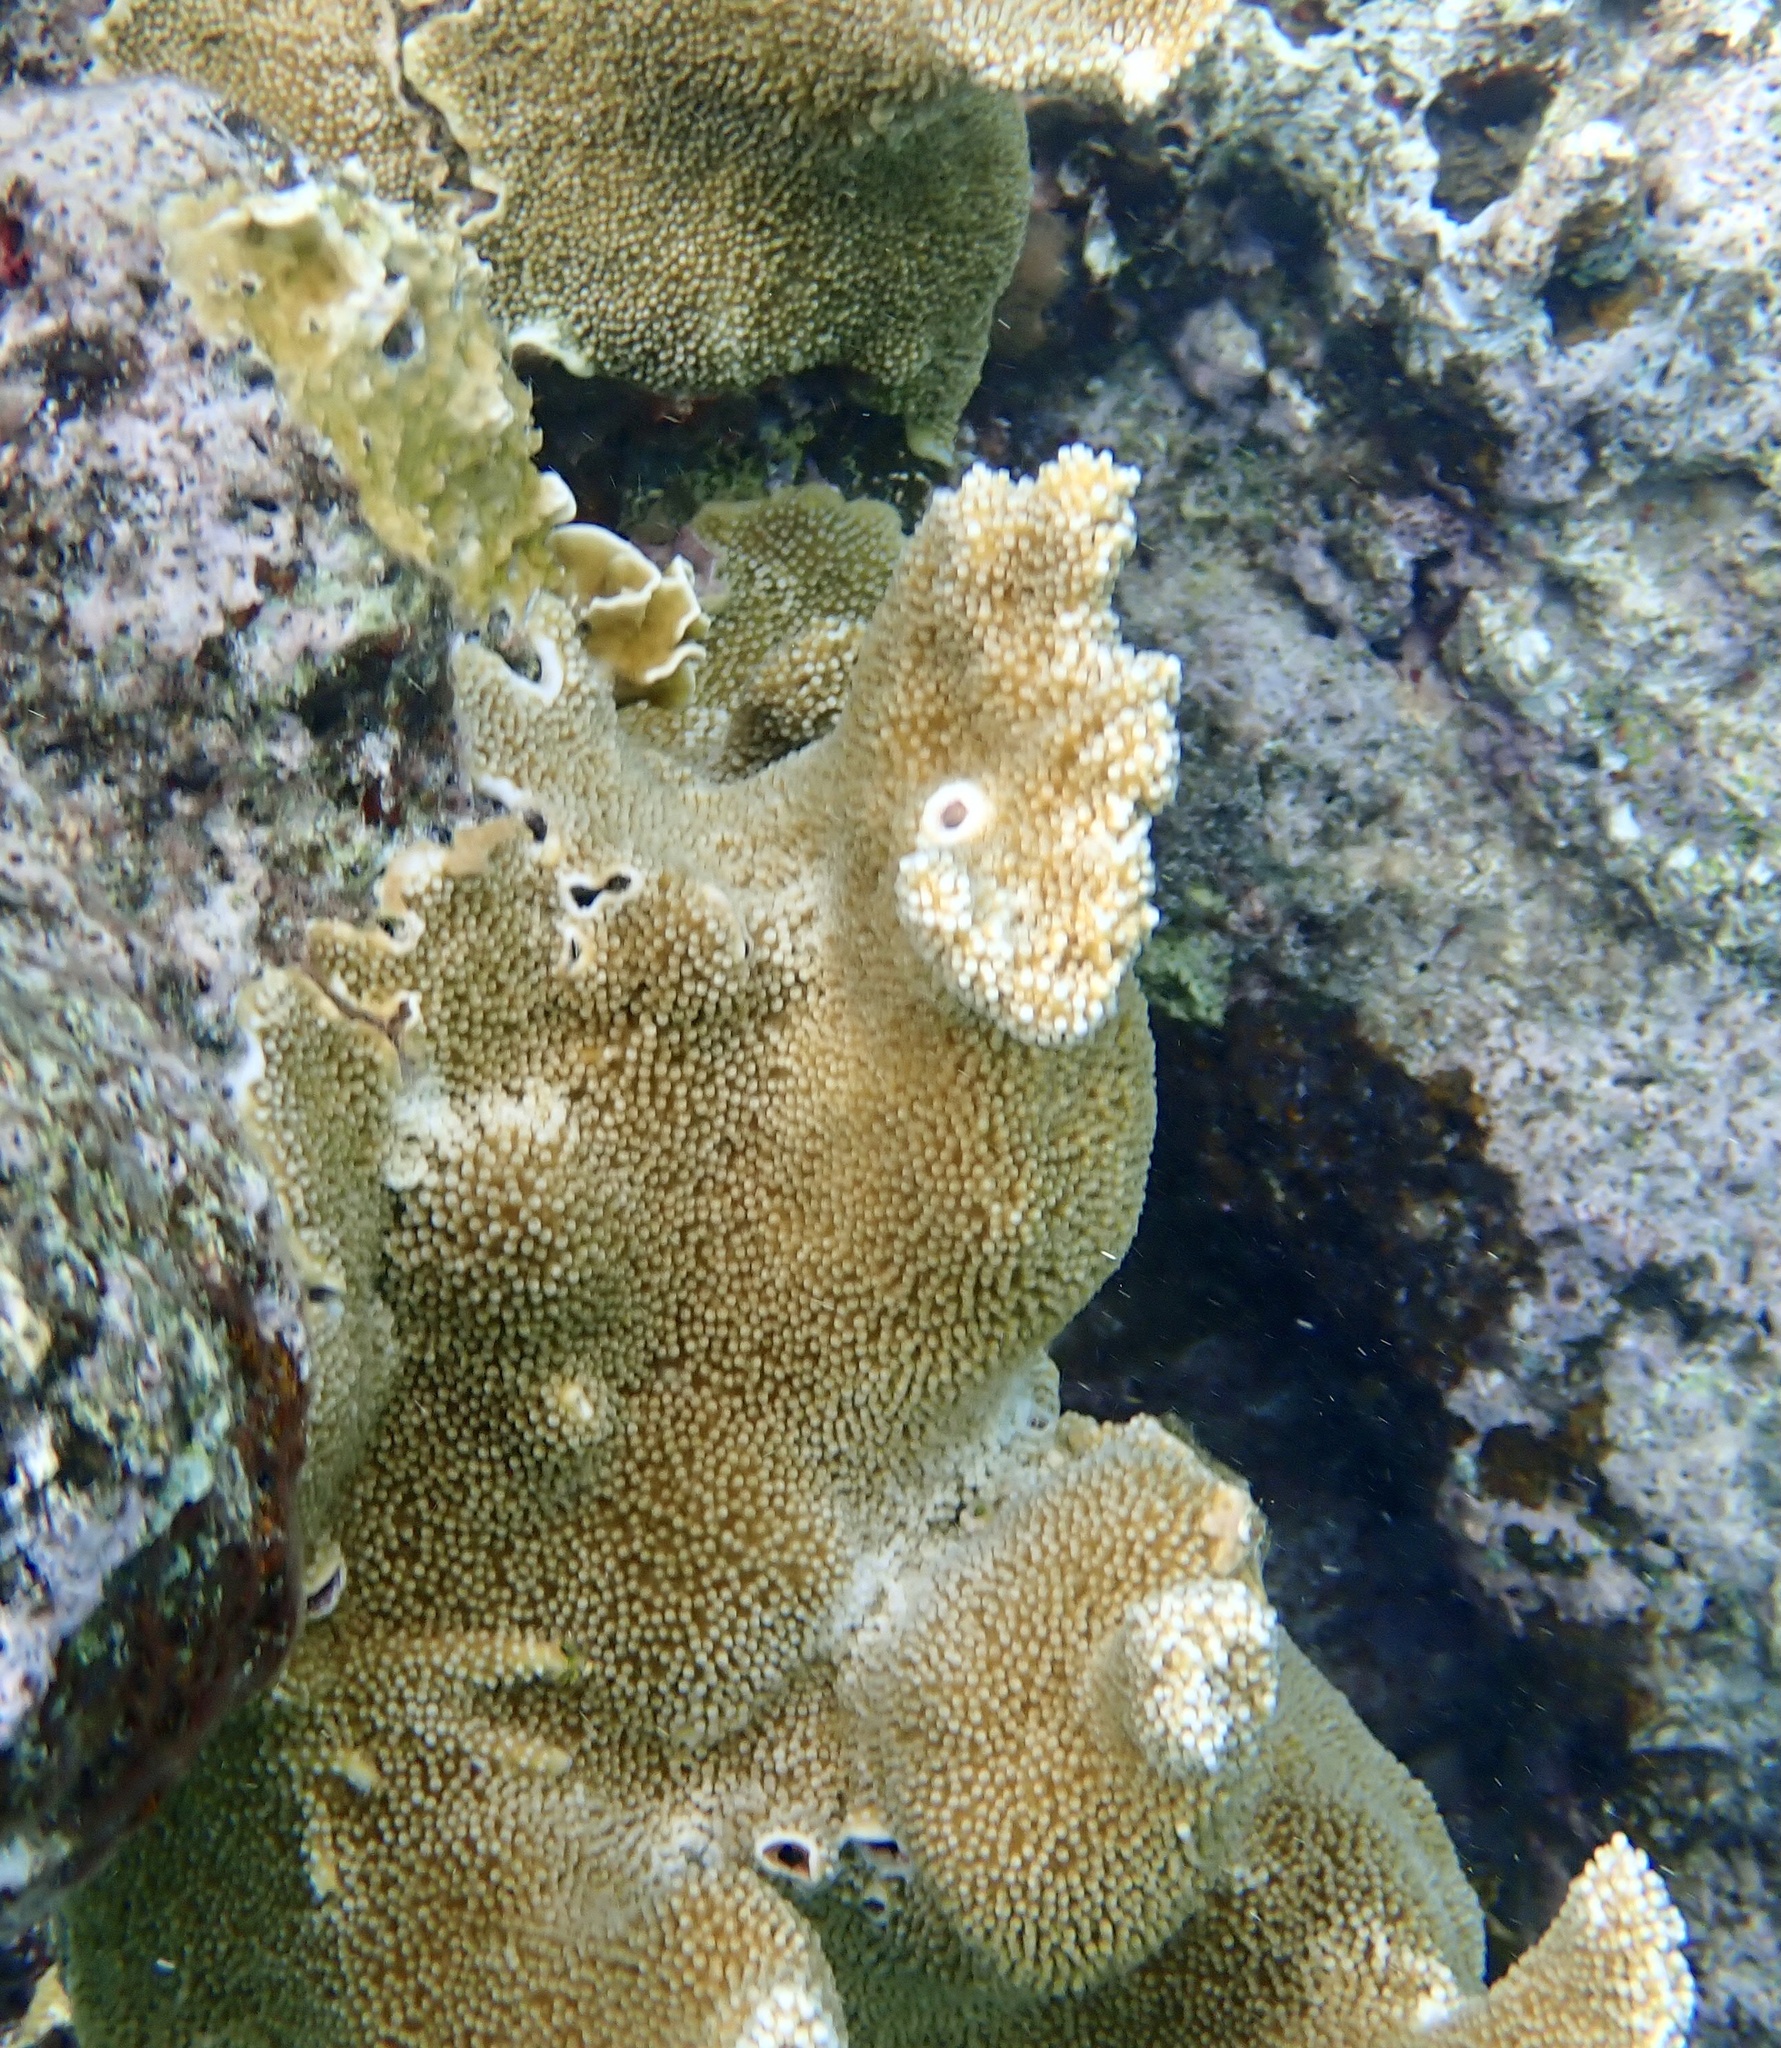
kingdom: Animalia
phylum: Cnidaria
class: Anthozoa
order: Scleractinia
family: Acroporidae
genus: Acropora
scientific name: Acropora palmata
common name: Elkhorn coral
